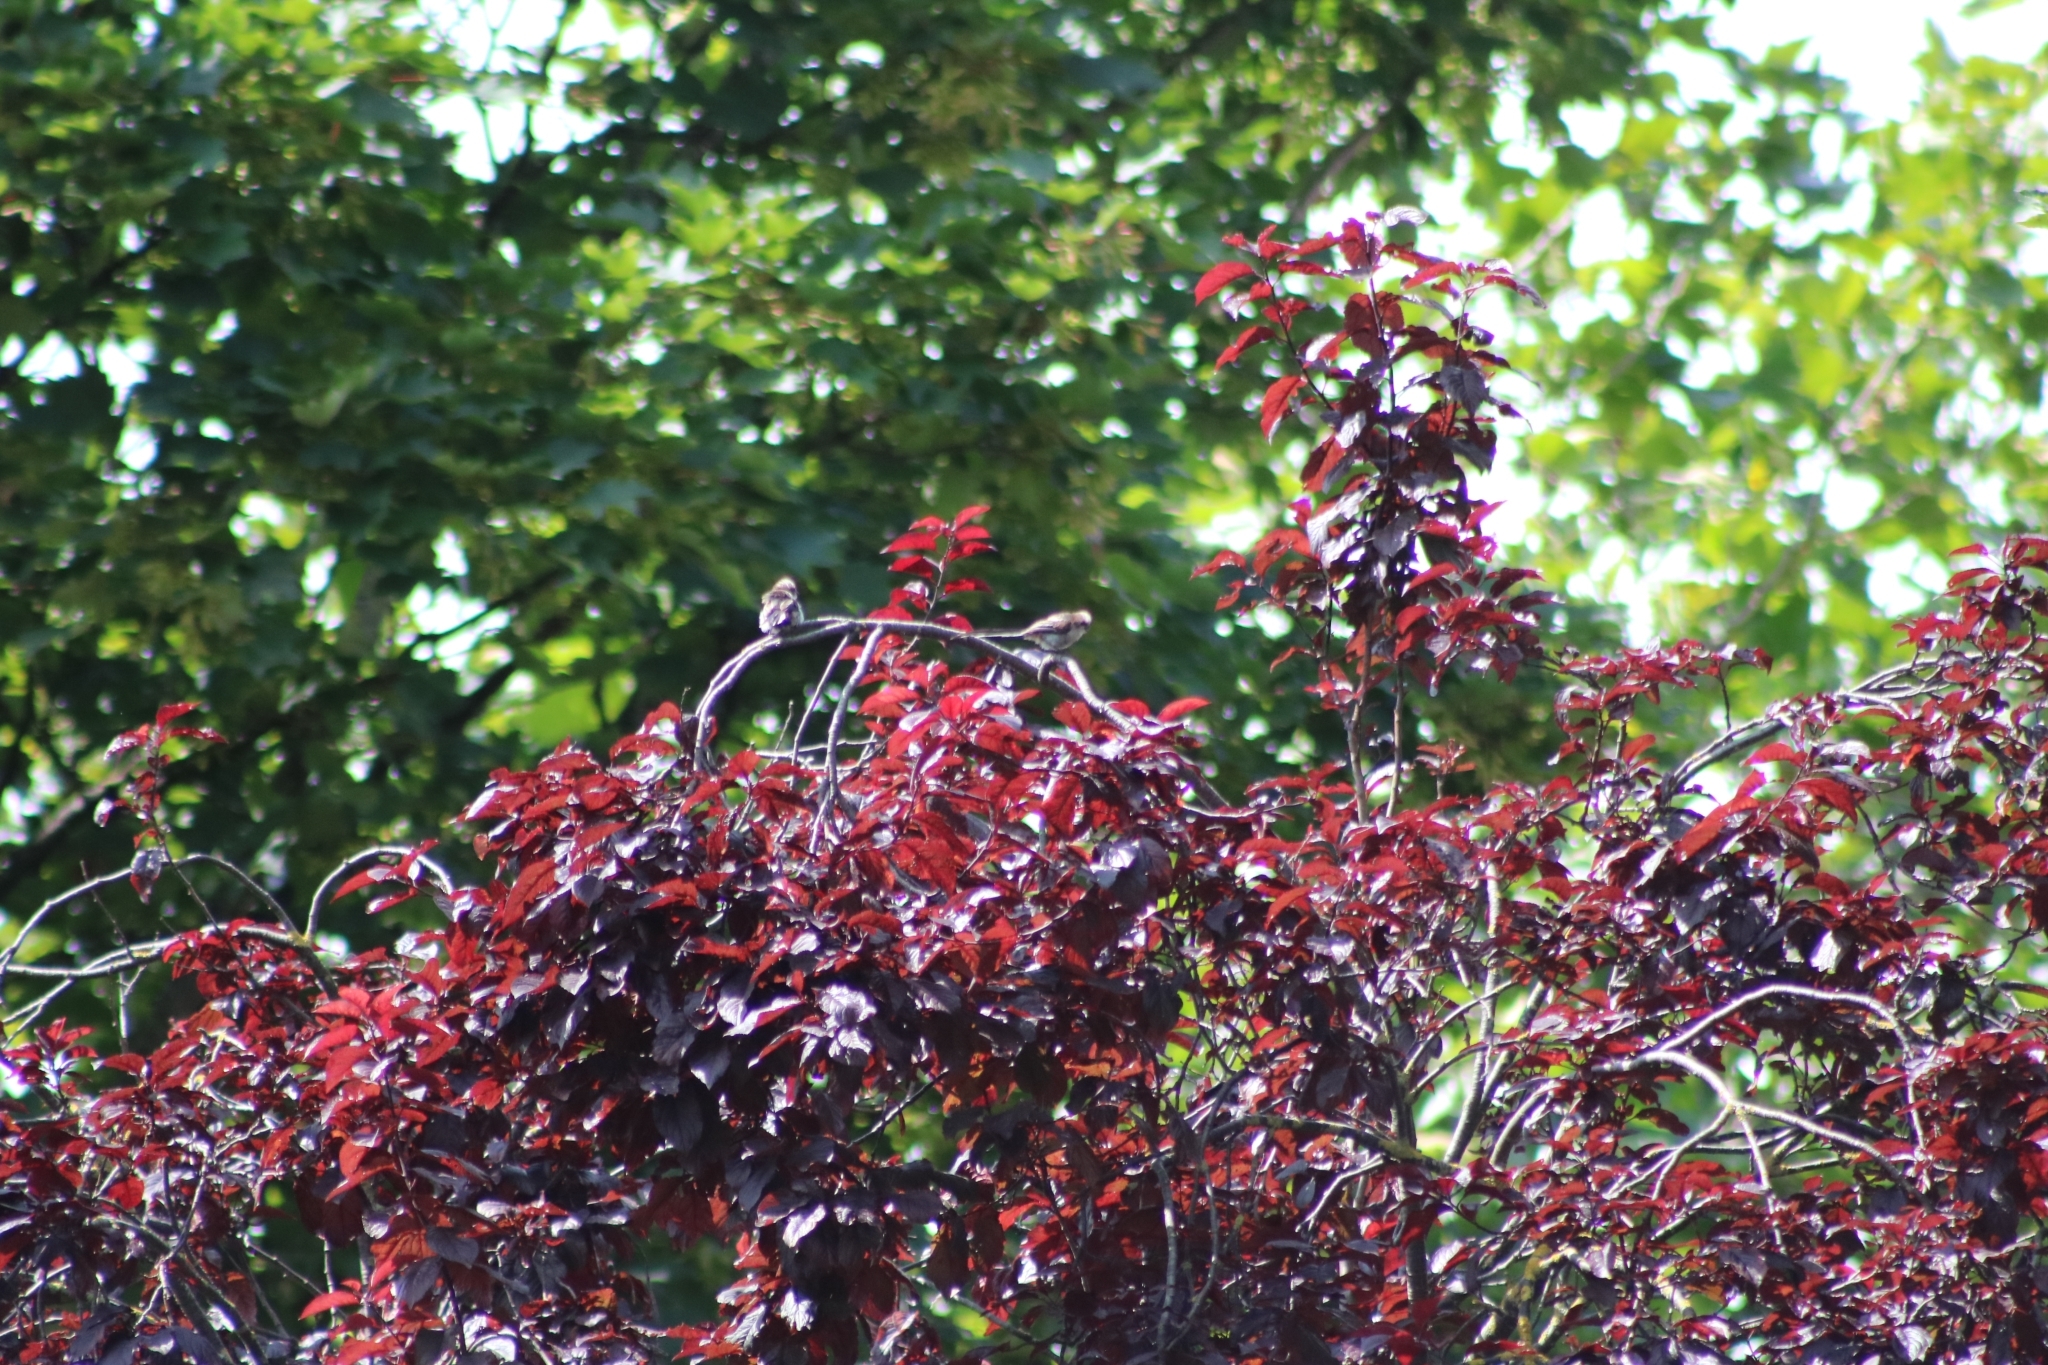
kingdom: Animalia
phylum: Chordata
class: Aves
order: Passeriformes
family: Aegithalidae
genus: Aegithalos
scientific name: Aegithalos caudatus
